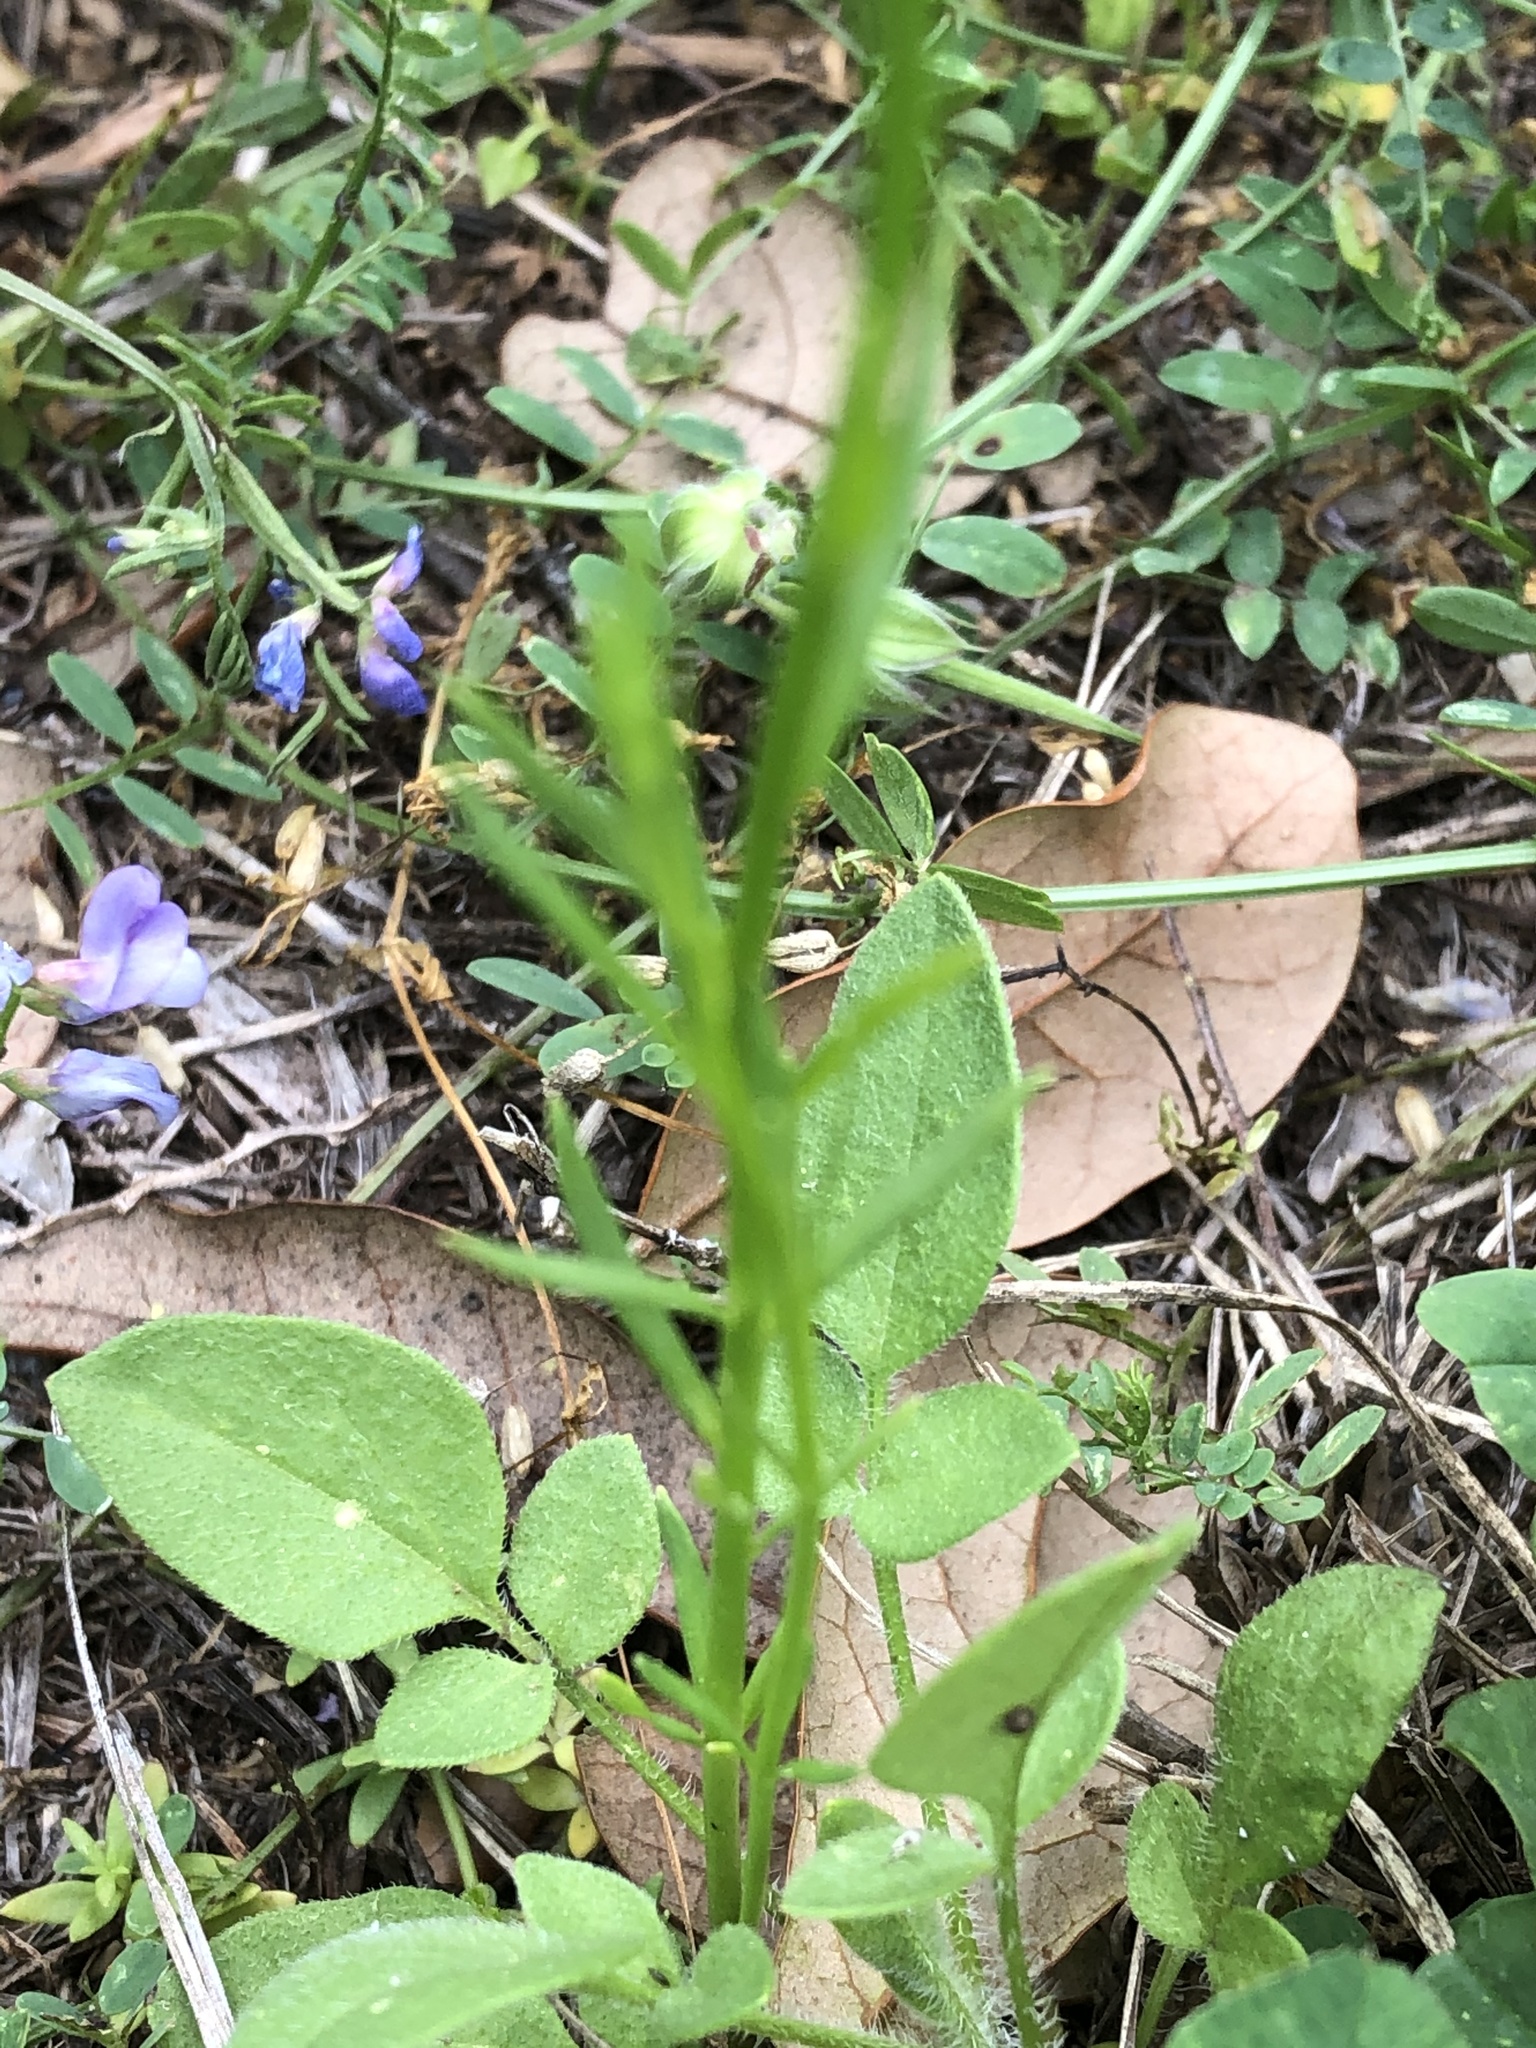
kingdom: Plantae
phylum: Tracheophyta
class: Magnoliopsida
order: Lamiales
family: Plantaginaceae
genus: Nuttallanthus
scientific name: Nuttallanthus texanus
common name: Texas toadflax
